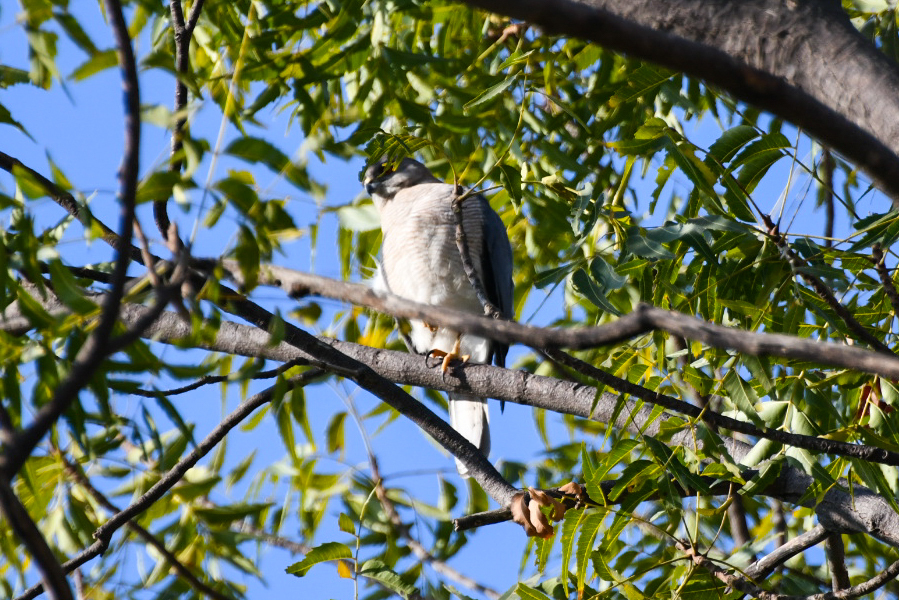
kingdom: Animalia
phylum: Chordata
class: Aves
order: Accipitriformes
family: Accipitridae
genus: Accipiter
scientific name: Accipiter badius
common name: Shikra
